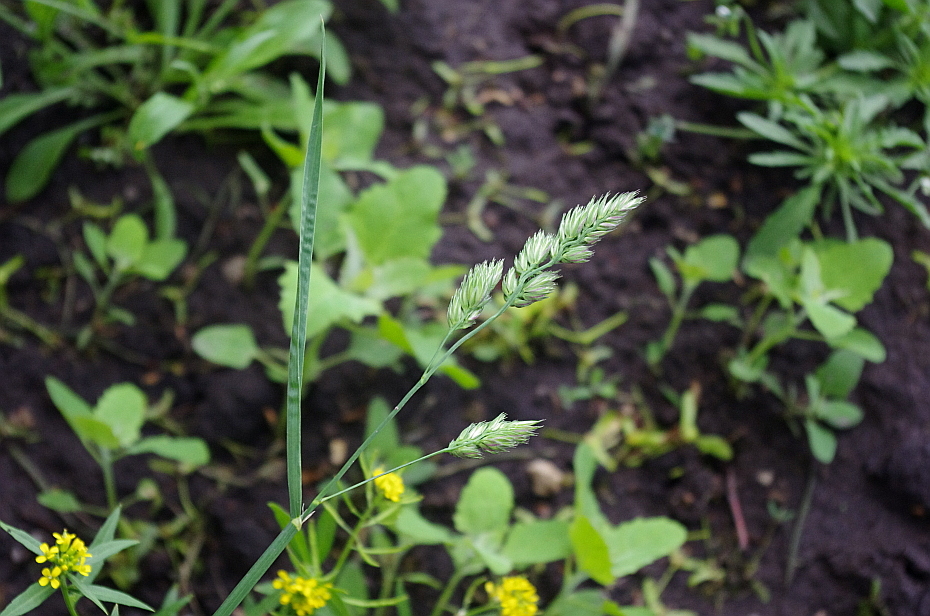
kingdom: Plantae
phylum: Tracheophyta
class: Liliopsida
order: Poales
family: Poaceae
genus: Dactylis
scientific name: Dactylis glomerata
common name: Orchardgrass
